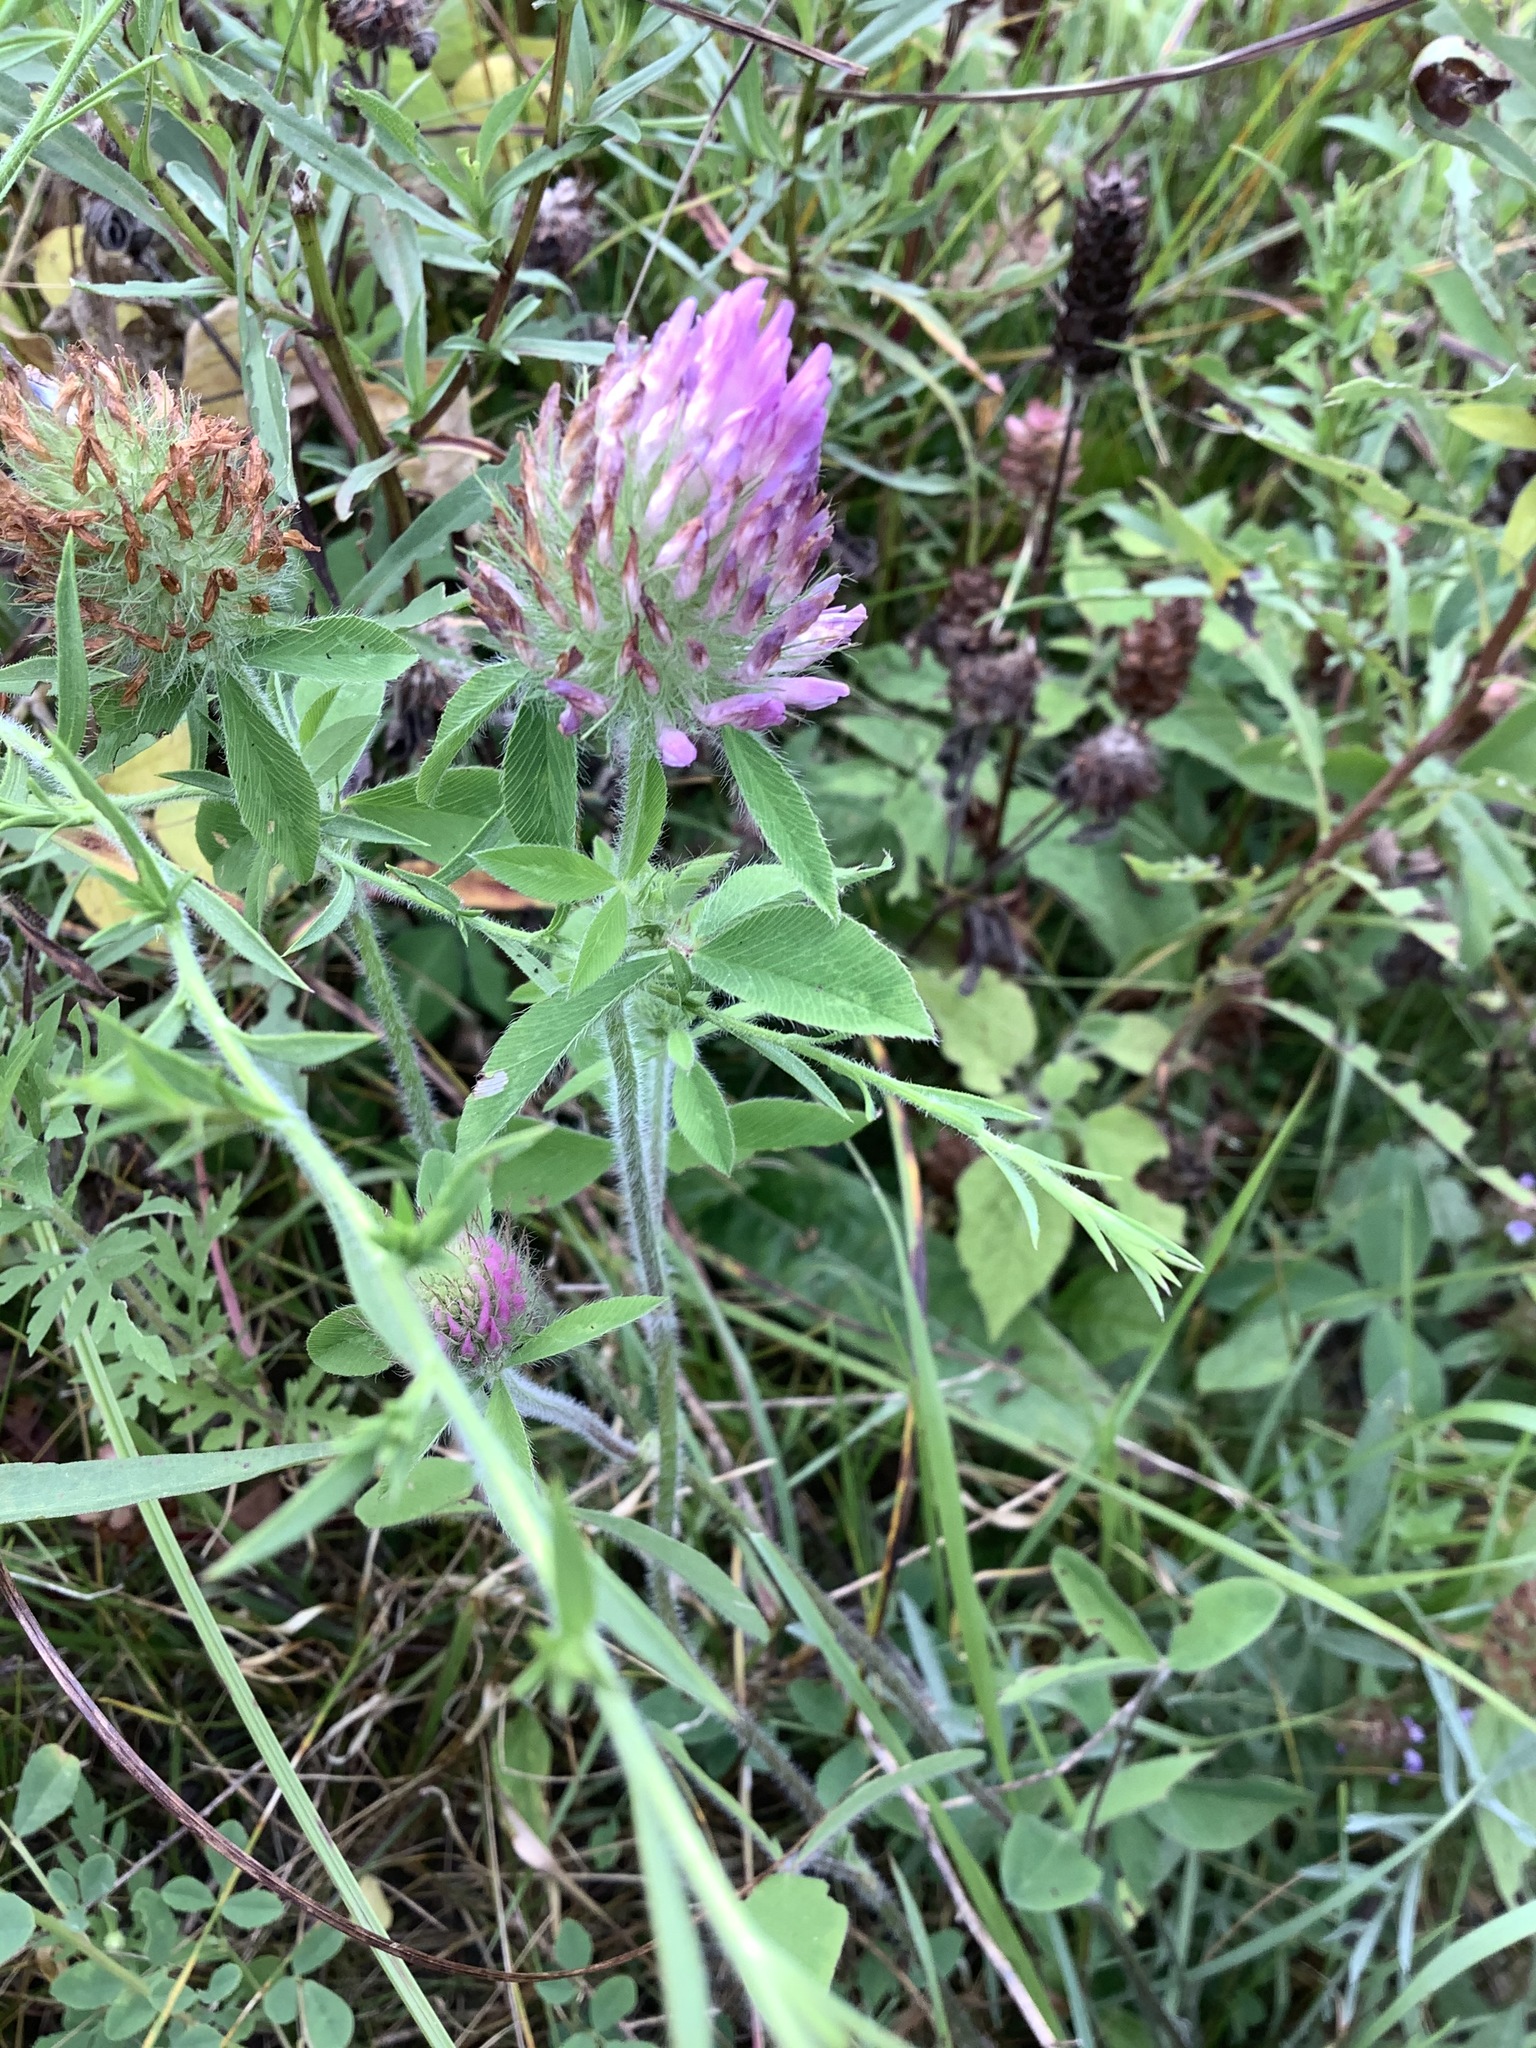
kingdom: Plantae
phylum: Tracheophyta
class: Magnoliopsida
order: Fabales
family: Fabaceae
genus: Trifolium
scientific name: Trifolium pratense
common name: Red clover
